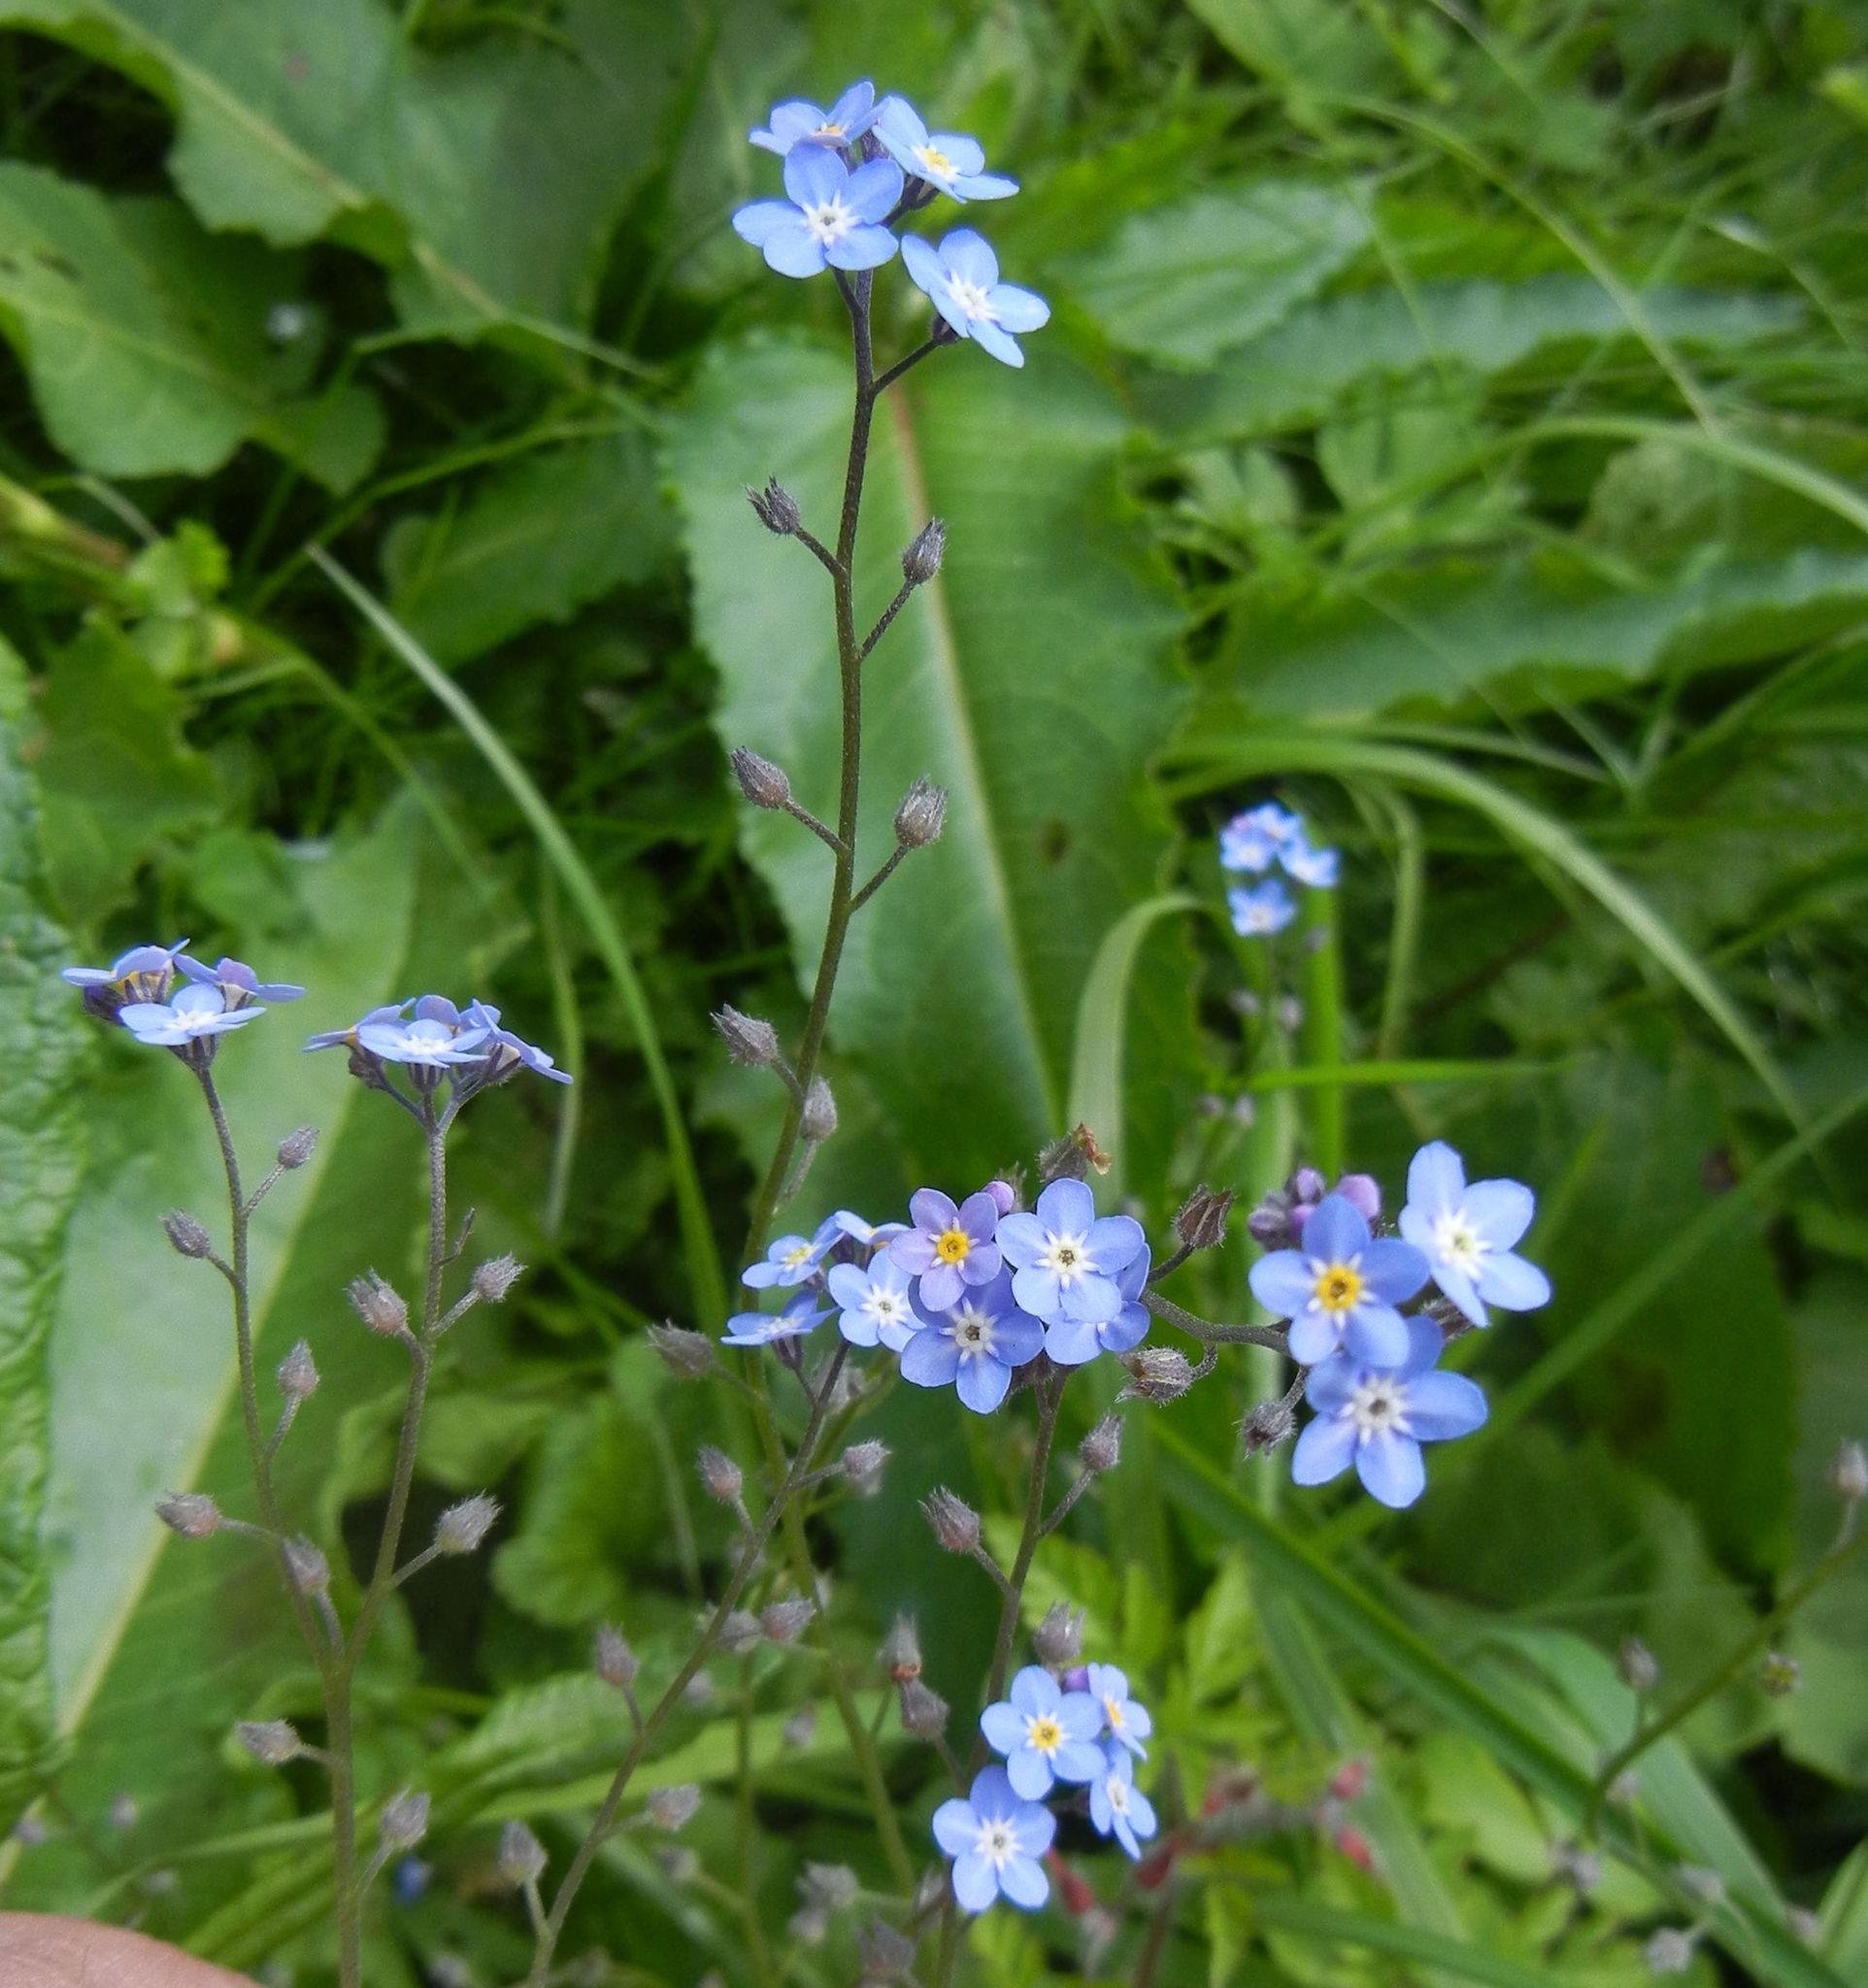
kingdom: Plantae
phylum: Tracheophyta
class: Magnoliopsida
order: Boraginales
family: Boraginaceae
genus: Myosotis
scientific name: Myosotis sylvatica
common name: Wood forget-me-not
